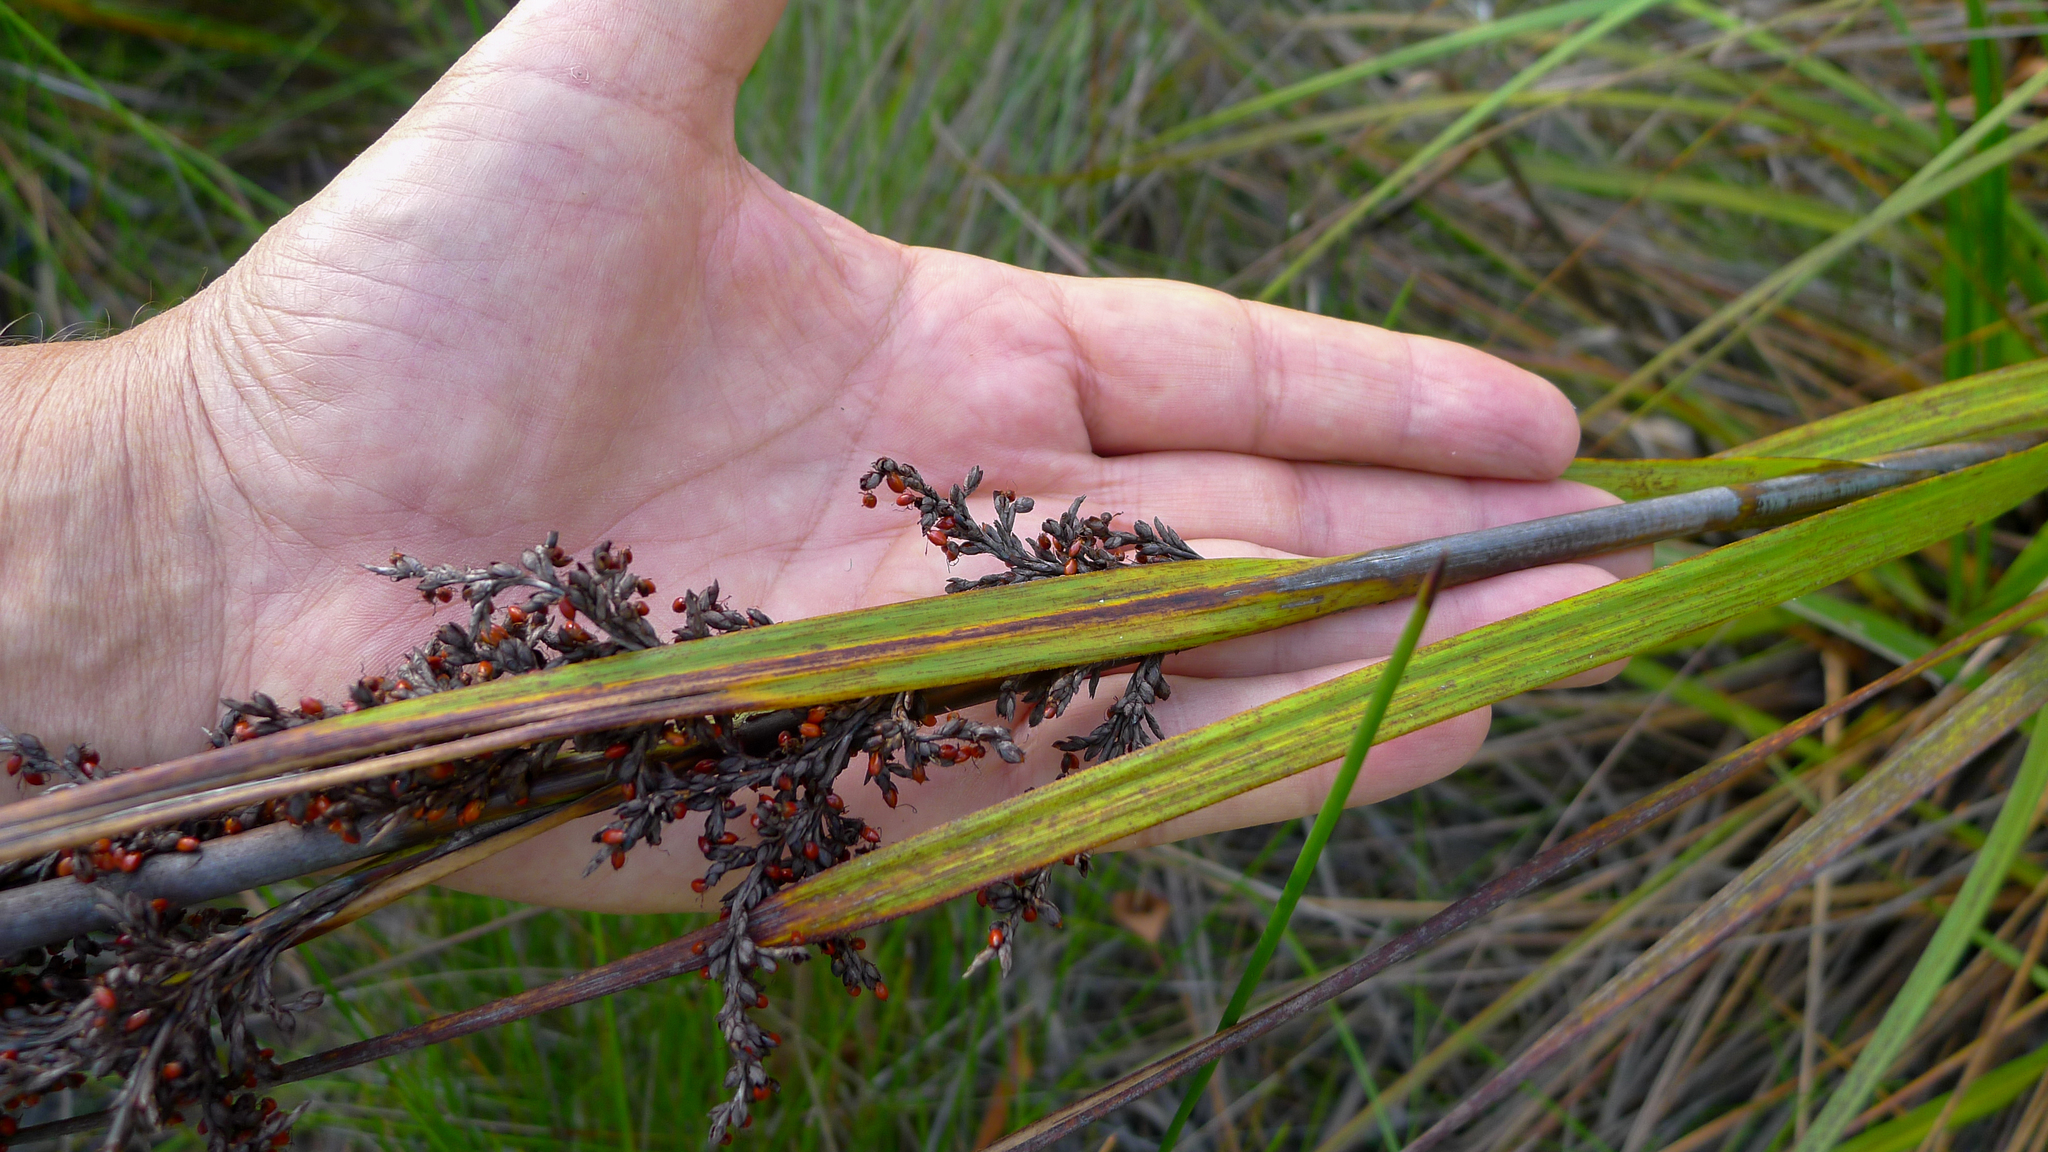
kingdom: Plantae
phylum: Tracheophyta
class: Liliopsida
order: Poales
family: Cyperaceae
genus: Gahnia
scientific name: Gahnia sieberiana
